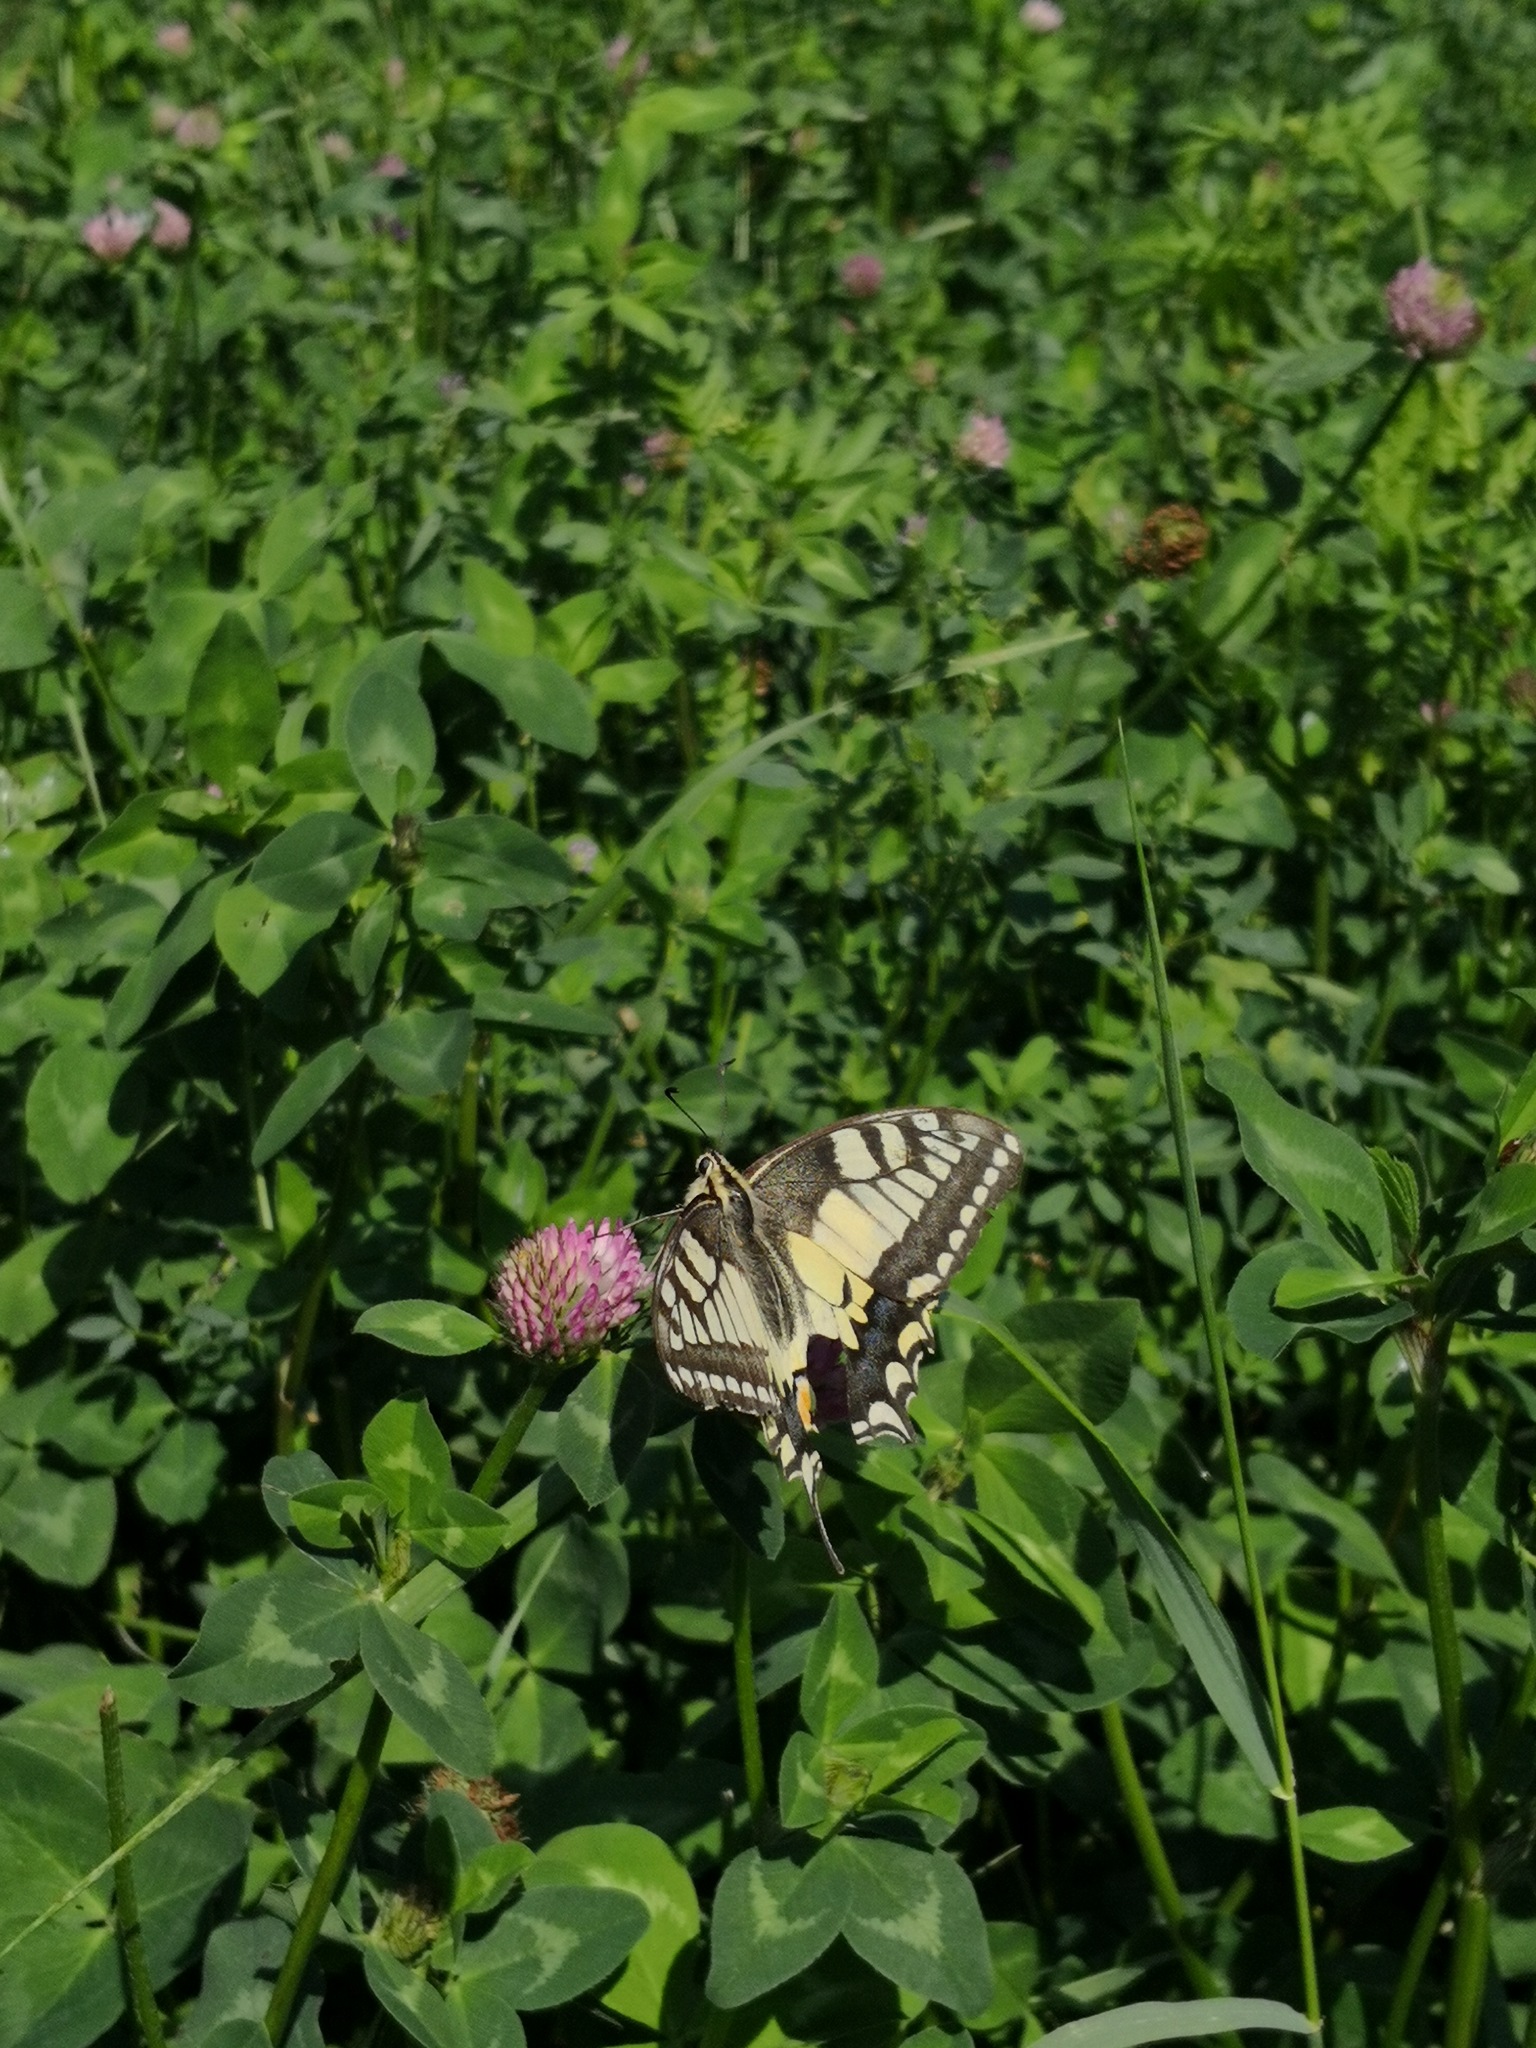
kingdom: Animalia
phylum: Arthropoda
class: Insecta
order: Lepidoptera
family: Papilionidae
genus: Papilio
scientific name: Papilio machaon
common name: Swallowtail
